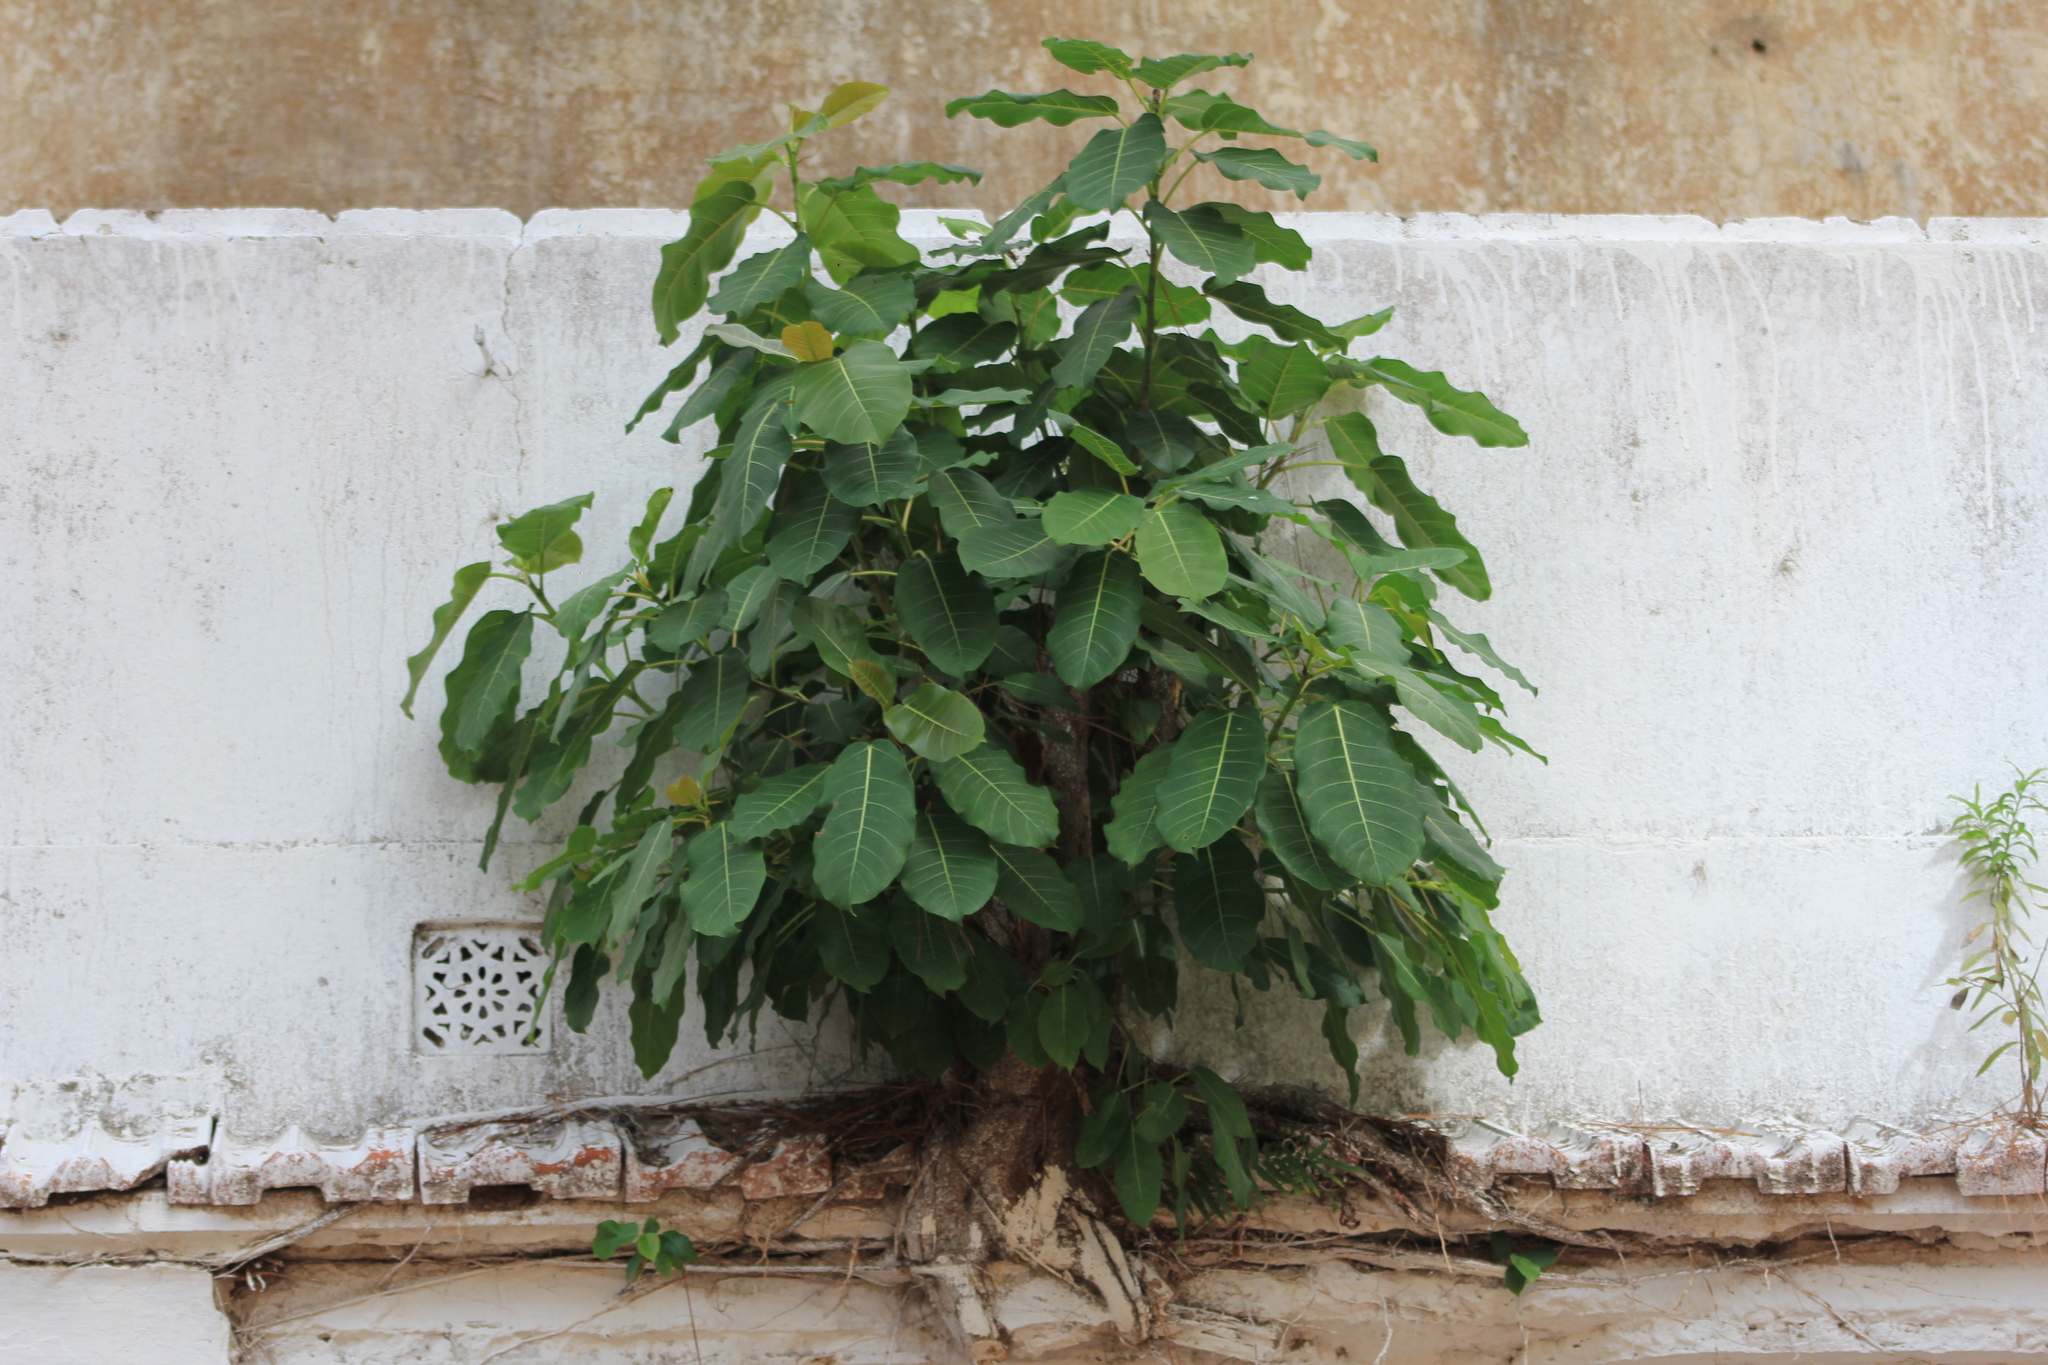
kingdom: Plantae
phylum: Tracheophyta
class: Magnoliopsida
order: Rosales
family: Moraceae
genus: Ficus
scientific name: Ficus luschnathiana
